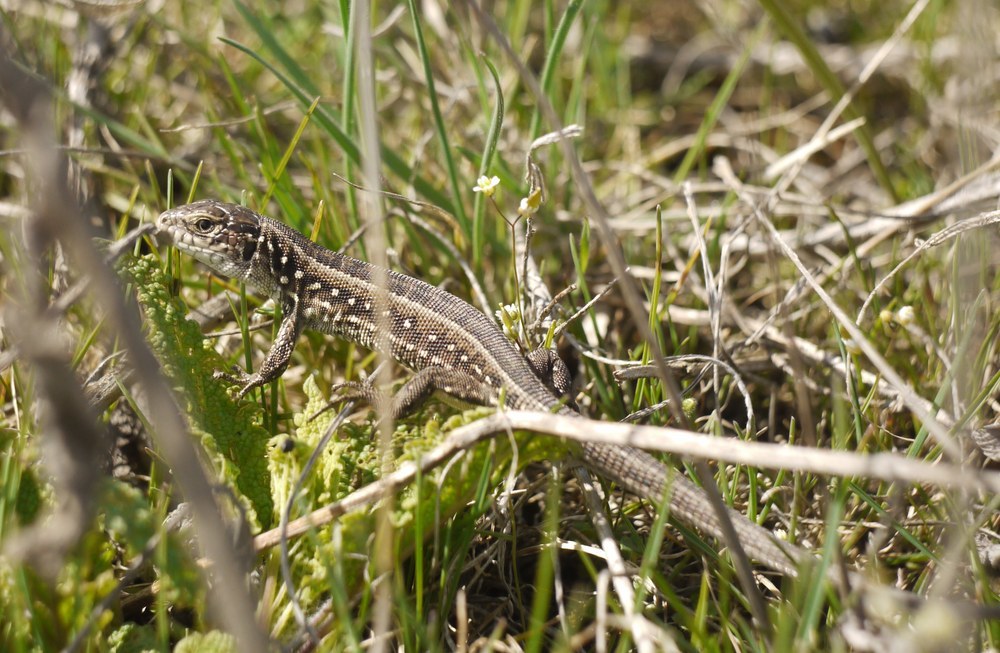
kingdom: Animalia
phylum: Chordata
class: Squamata
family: Lacertidae
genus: Lacerta
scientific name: Lacerta agilis
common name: Sand lizard
